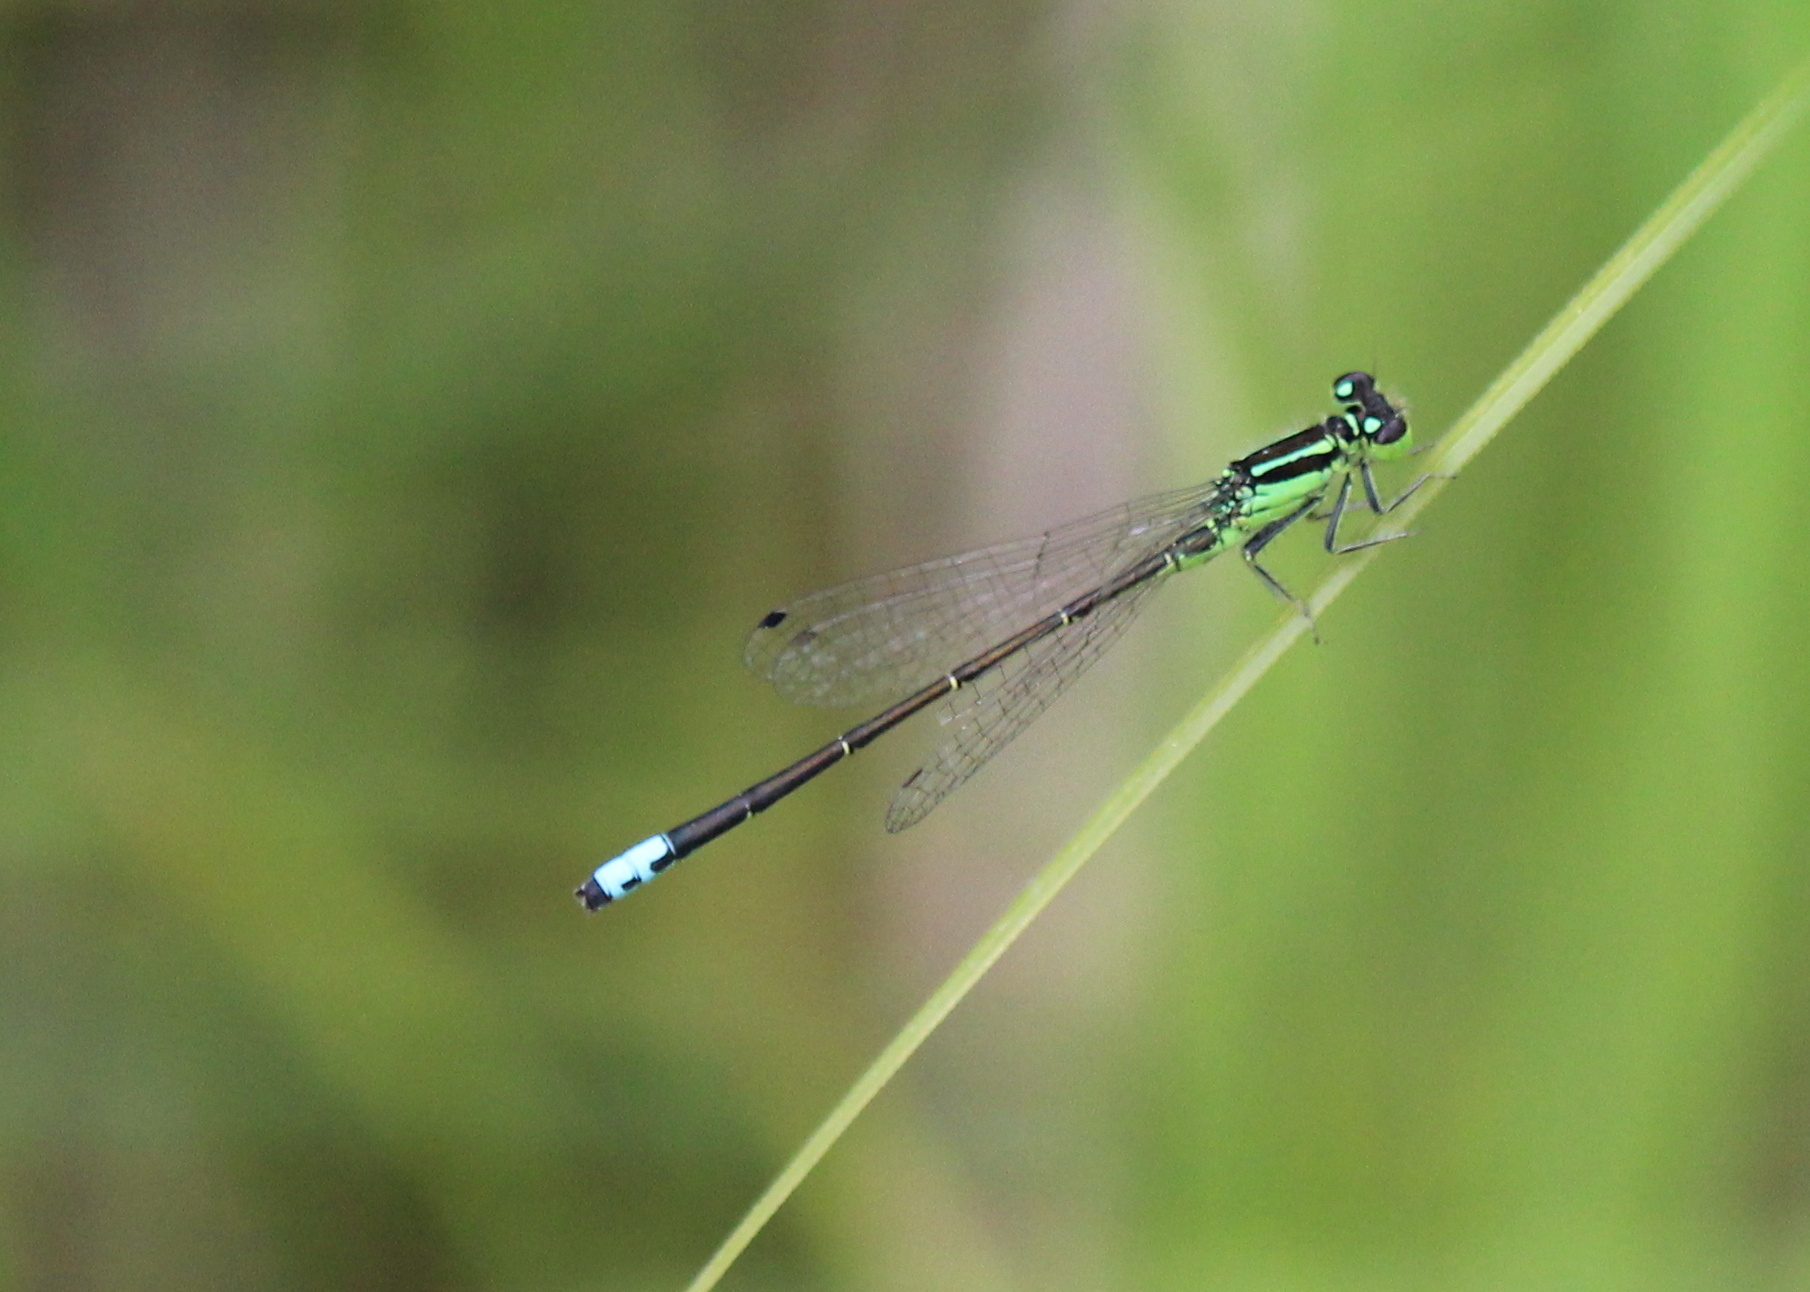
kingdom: Animalia
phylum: Arthropoda
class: Insecta
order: Odonata
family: Coenagrionidae
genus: Ischnura
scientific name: Ischnura verticalis
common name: Eastern forktail
